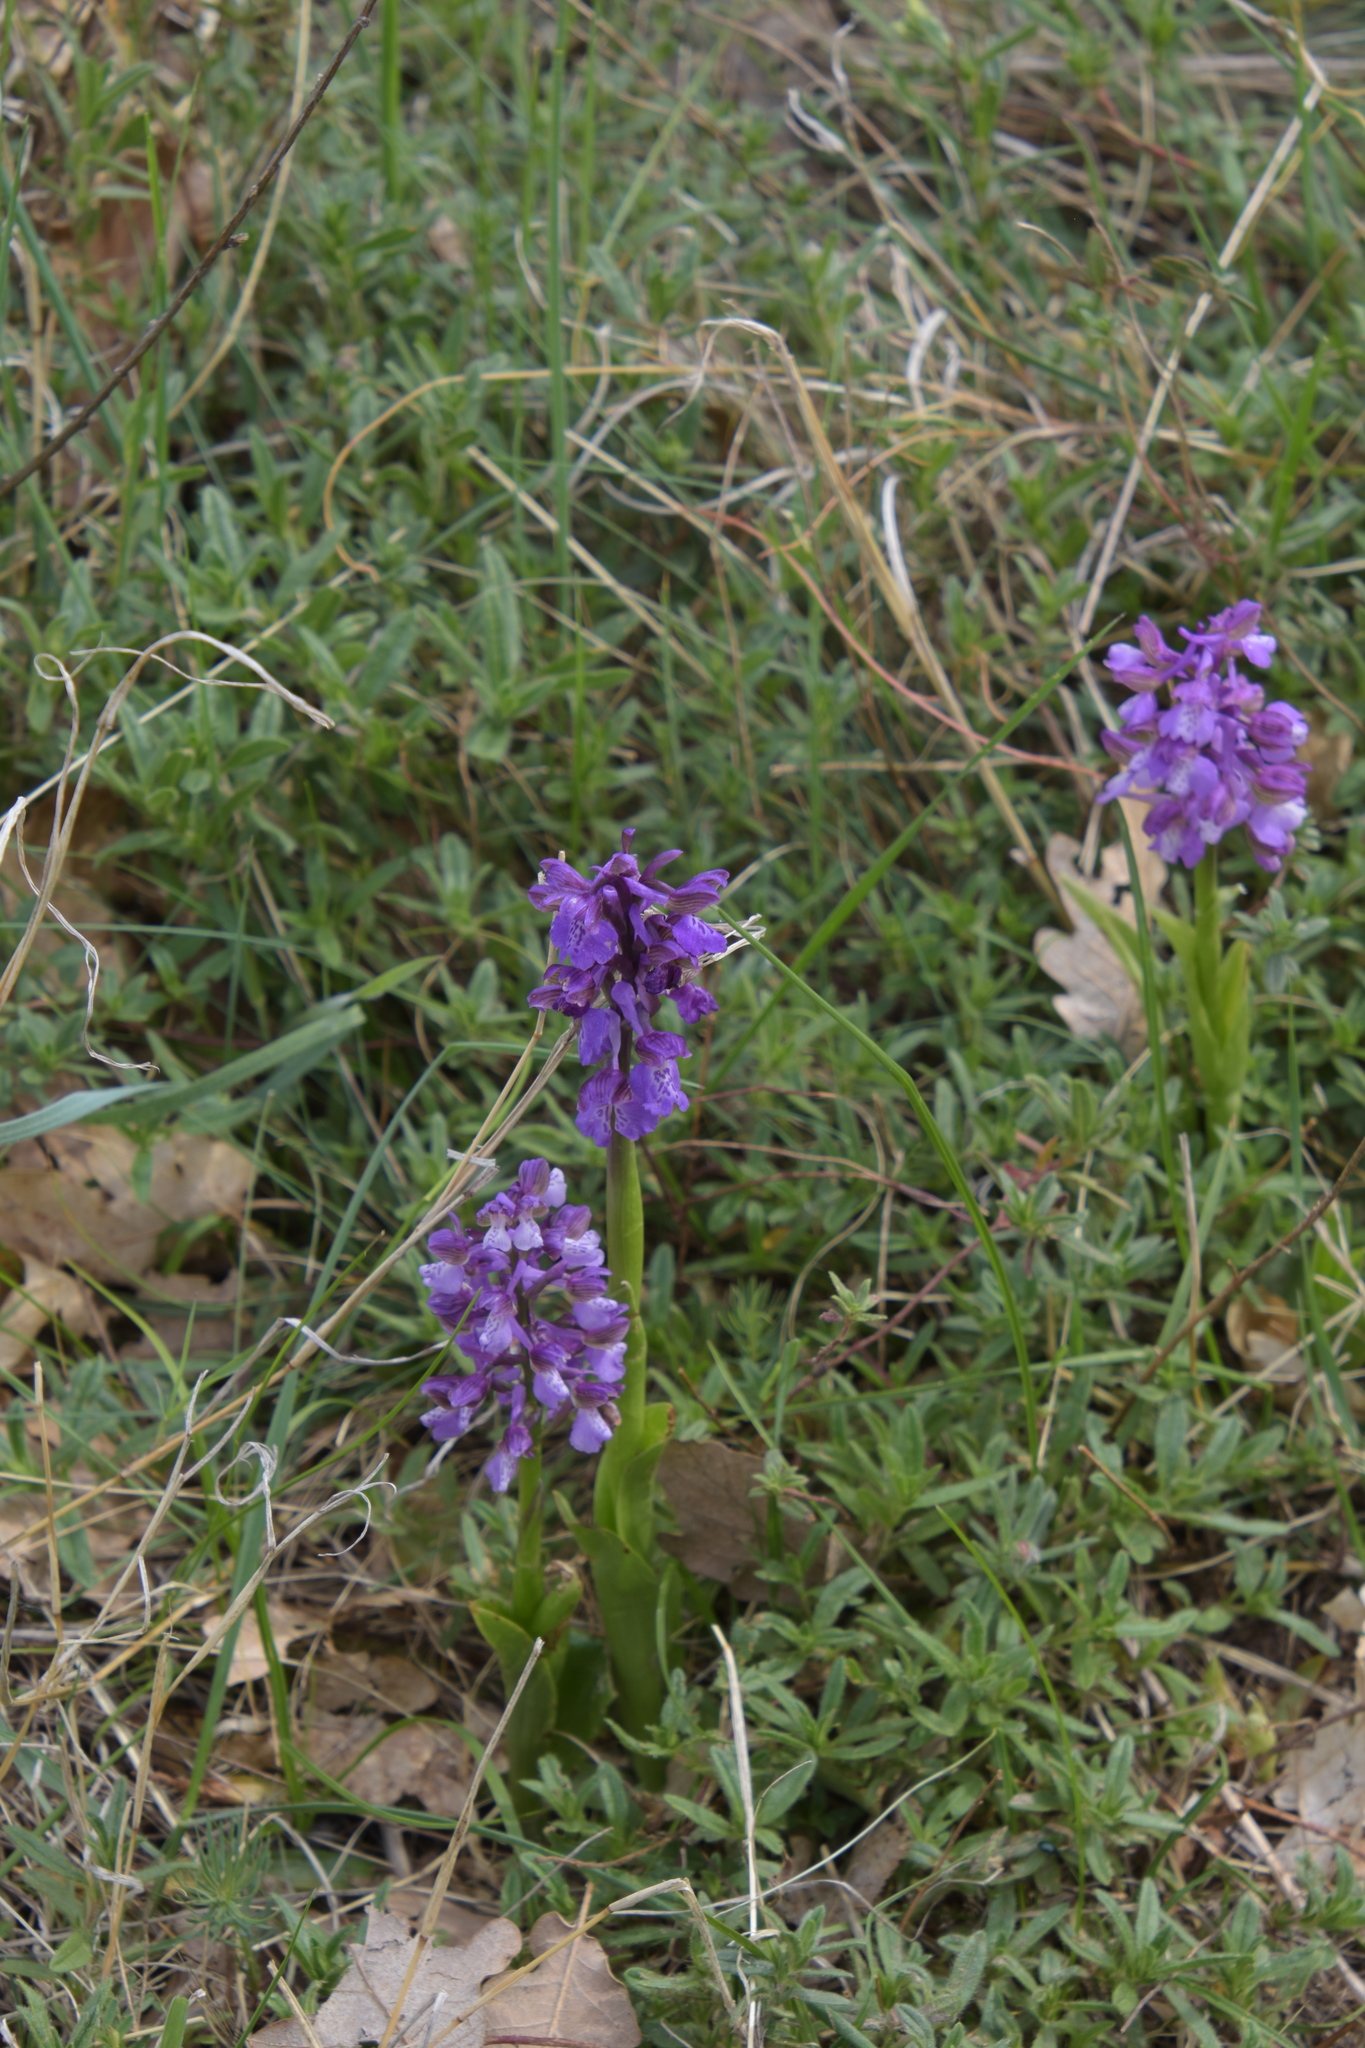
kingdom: Plantae
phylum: Tracheophyta
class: Liliopsida
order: Asparagales
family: Orchidaceae
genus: Anacamptis
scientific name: Anacamptis morio
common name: Green-winged orchid
